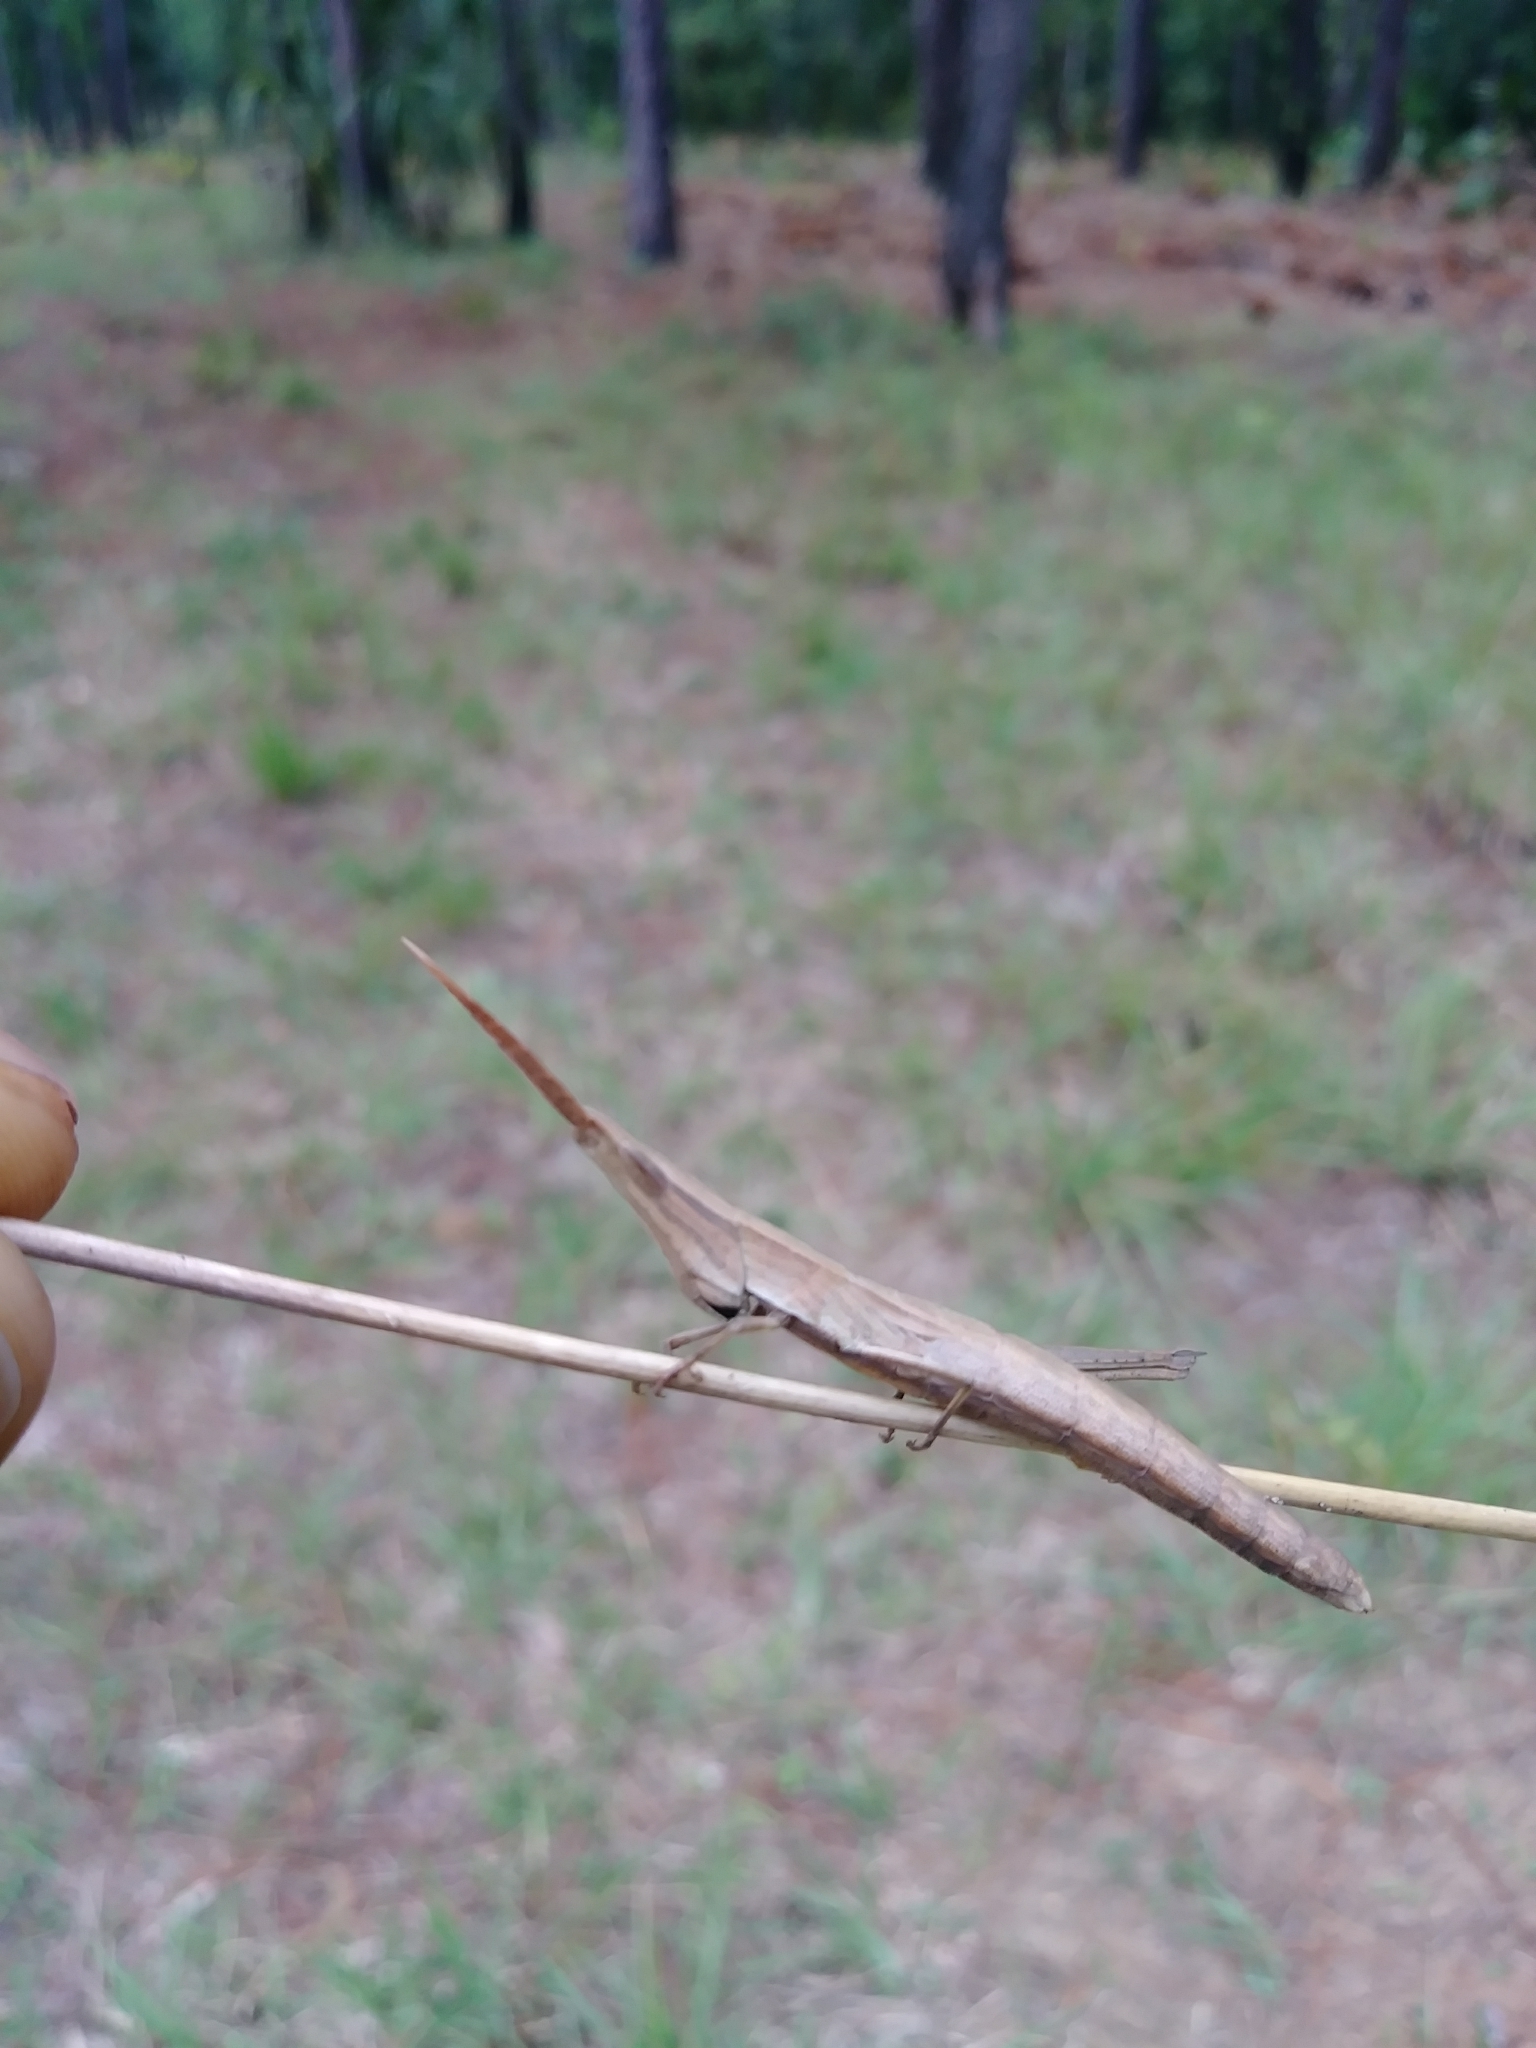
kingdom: Animalia
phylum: Arthropoda
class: Insecta
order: Orthoptera
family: Acrididae
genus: Achurum
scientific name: Achurum carinatum
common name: Long-headed toothpick grasshopper
